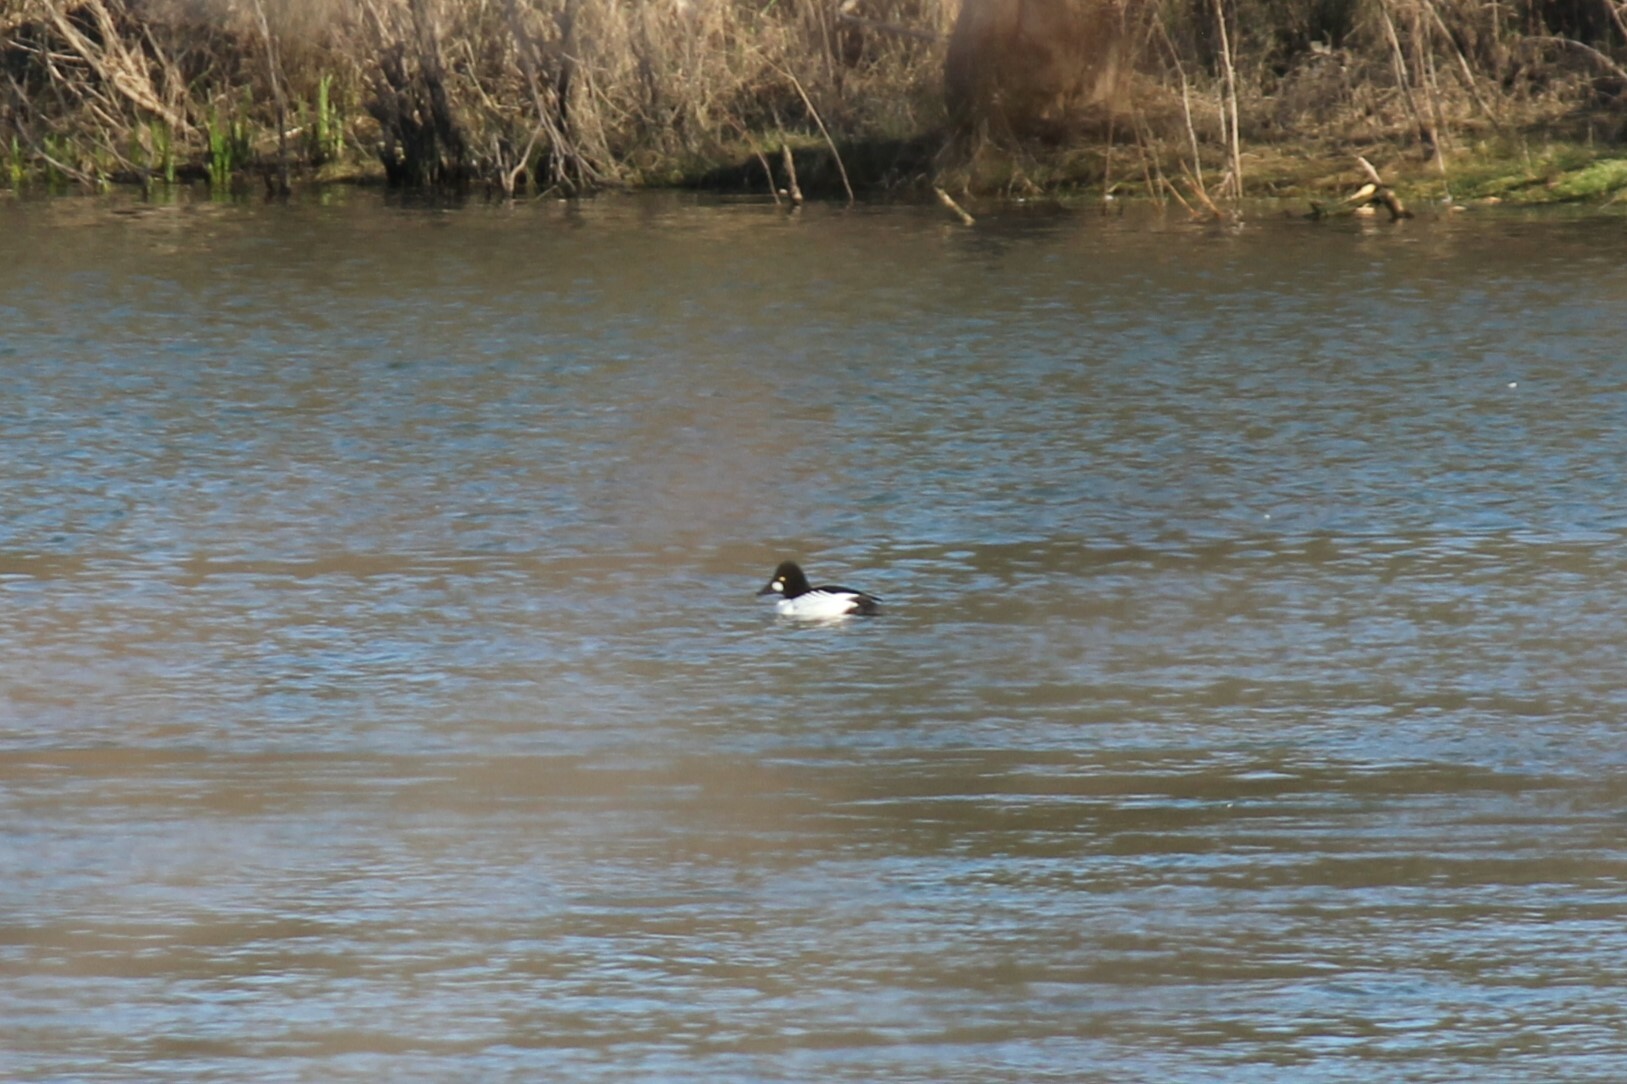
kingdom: Animalia
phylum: Chordata
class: Aves
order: Anseriformes
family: Anatidae
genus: Bucephala
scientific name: Bucephala clangula
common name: Common goldeneye
